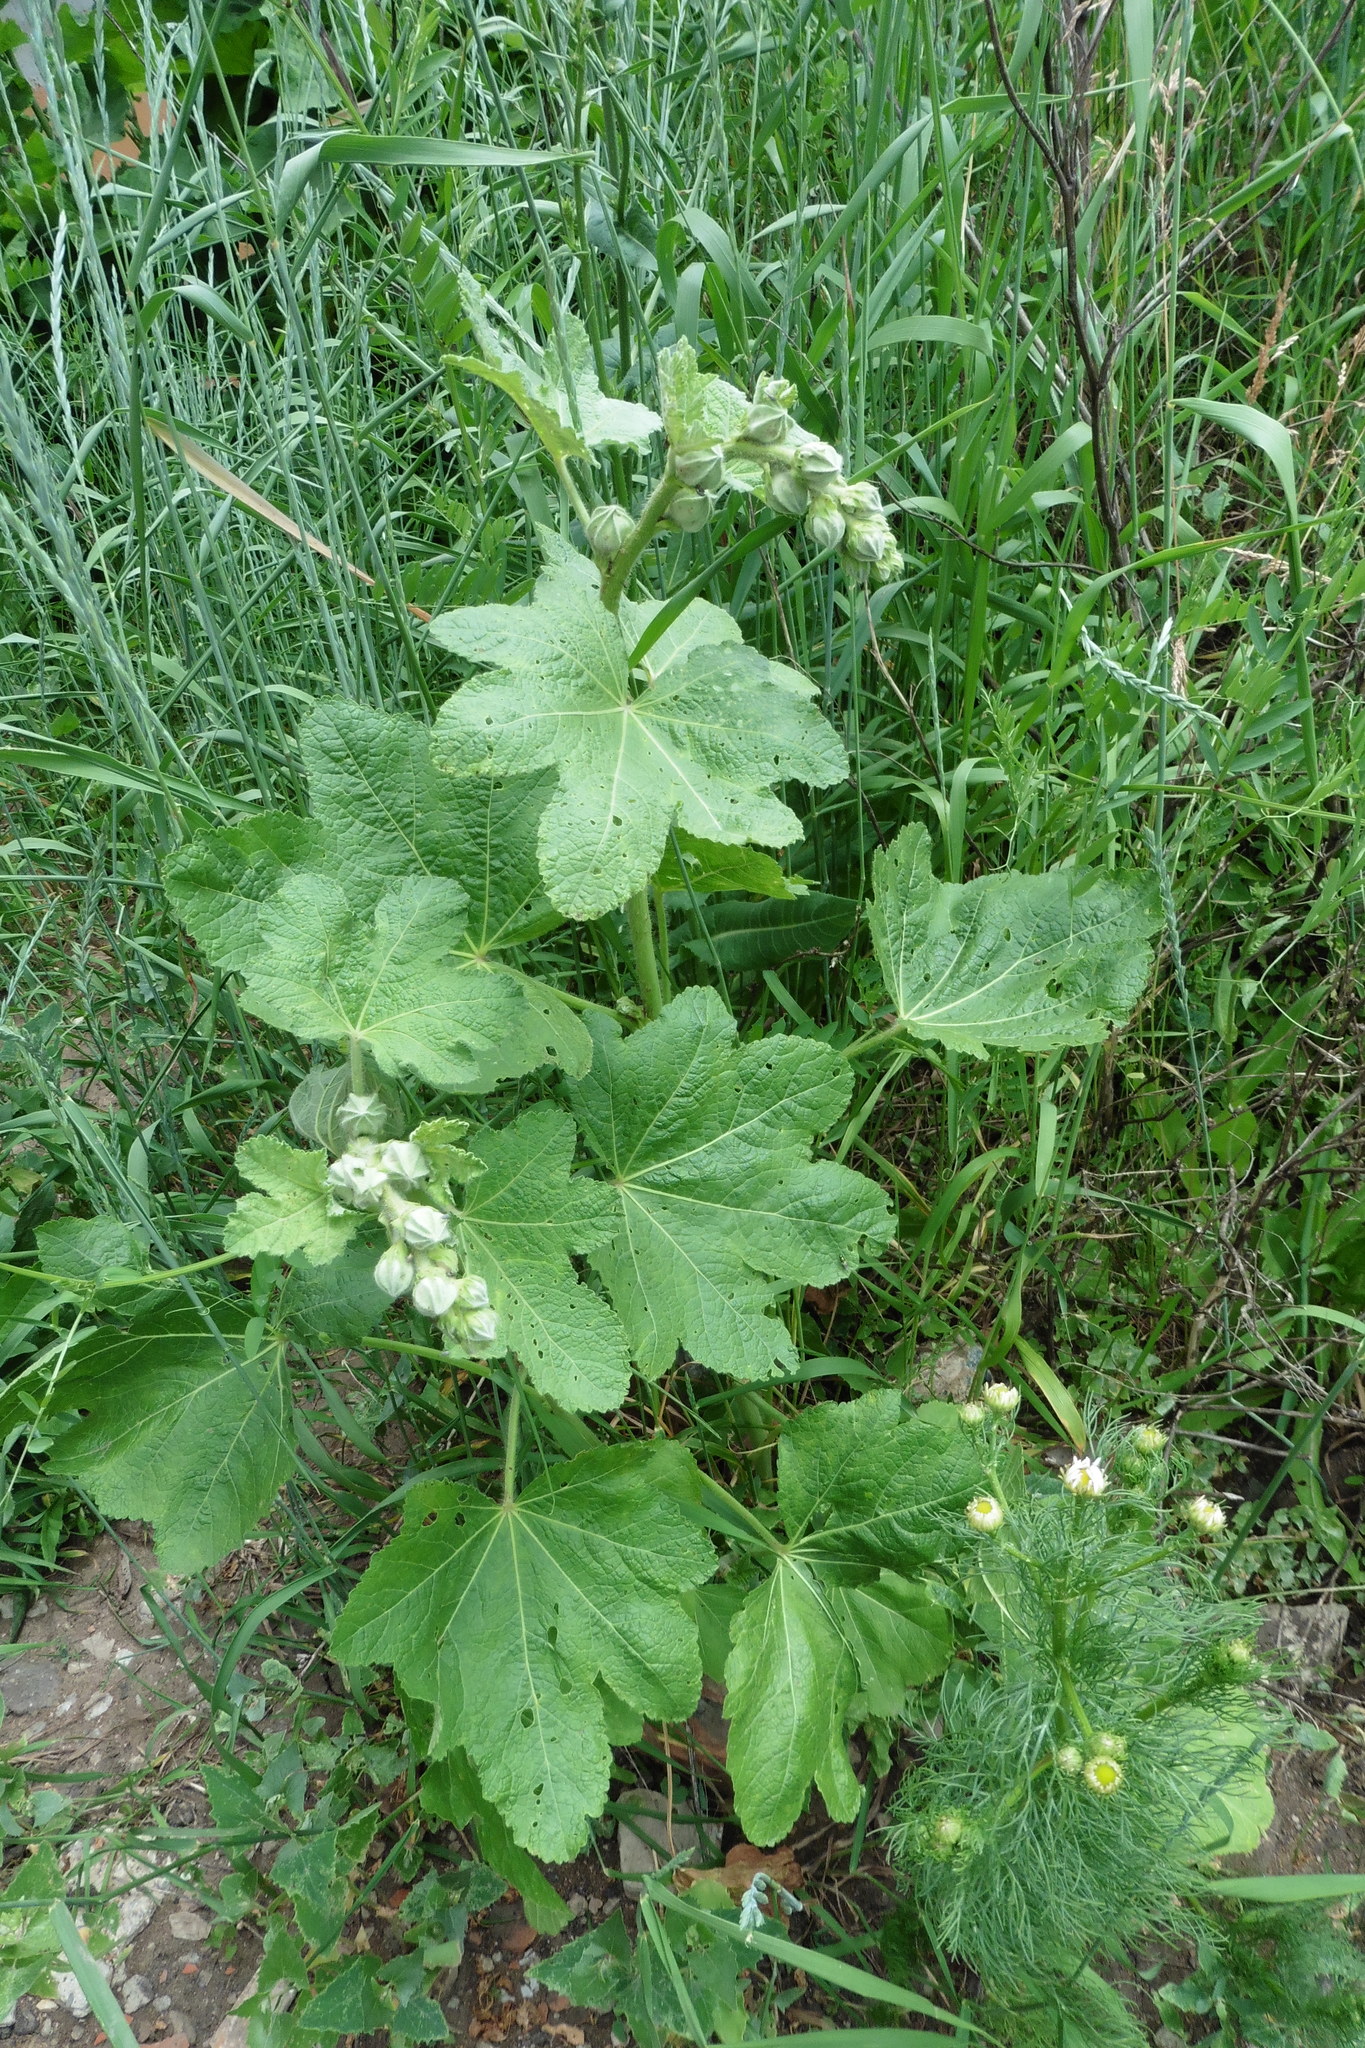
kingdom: Plantae
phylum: Tracheophyta
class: Magnoliopsida
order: Malvales
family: Malvaceae
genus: Alcea
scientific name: Alcea rosea
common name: Hollyhock
